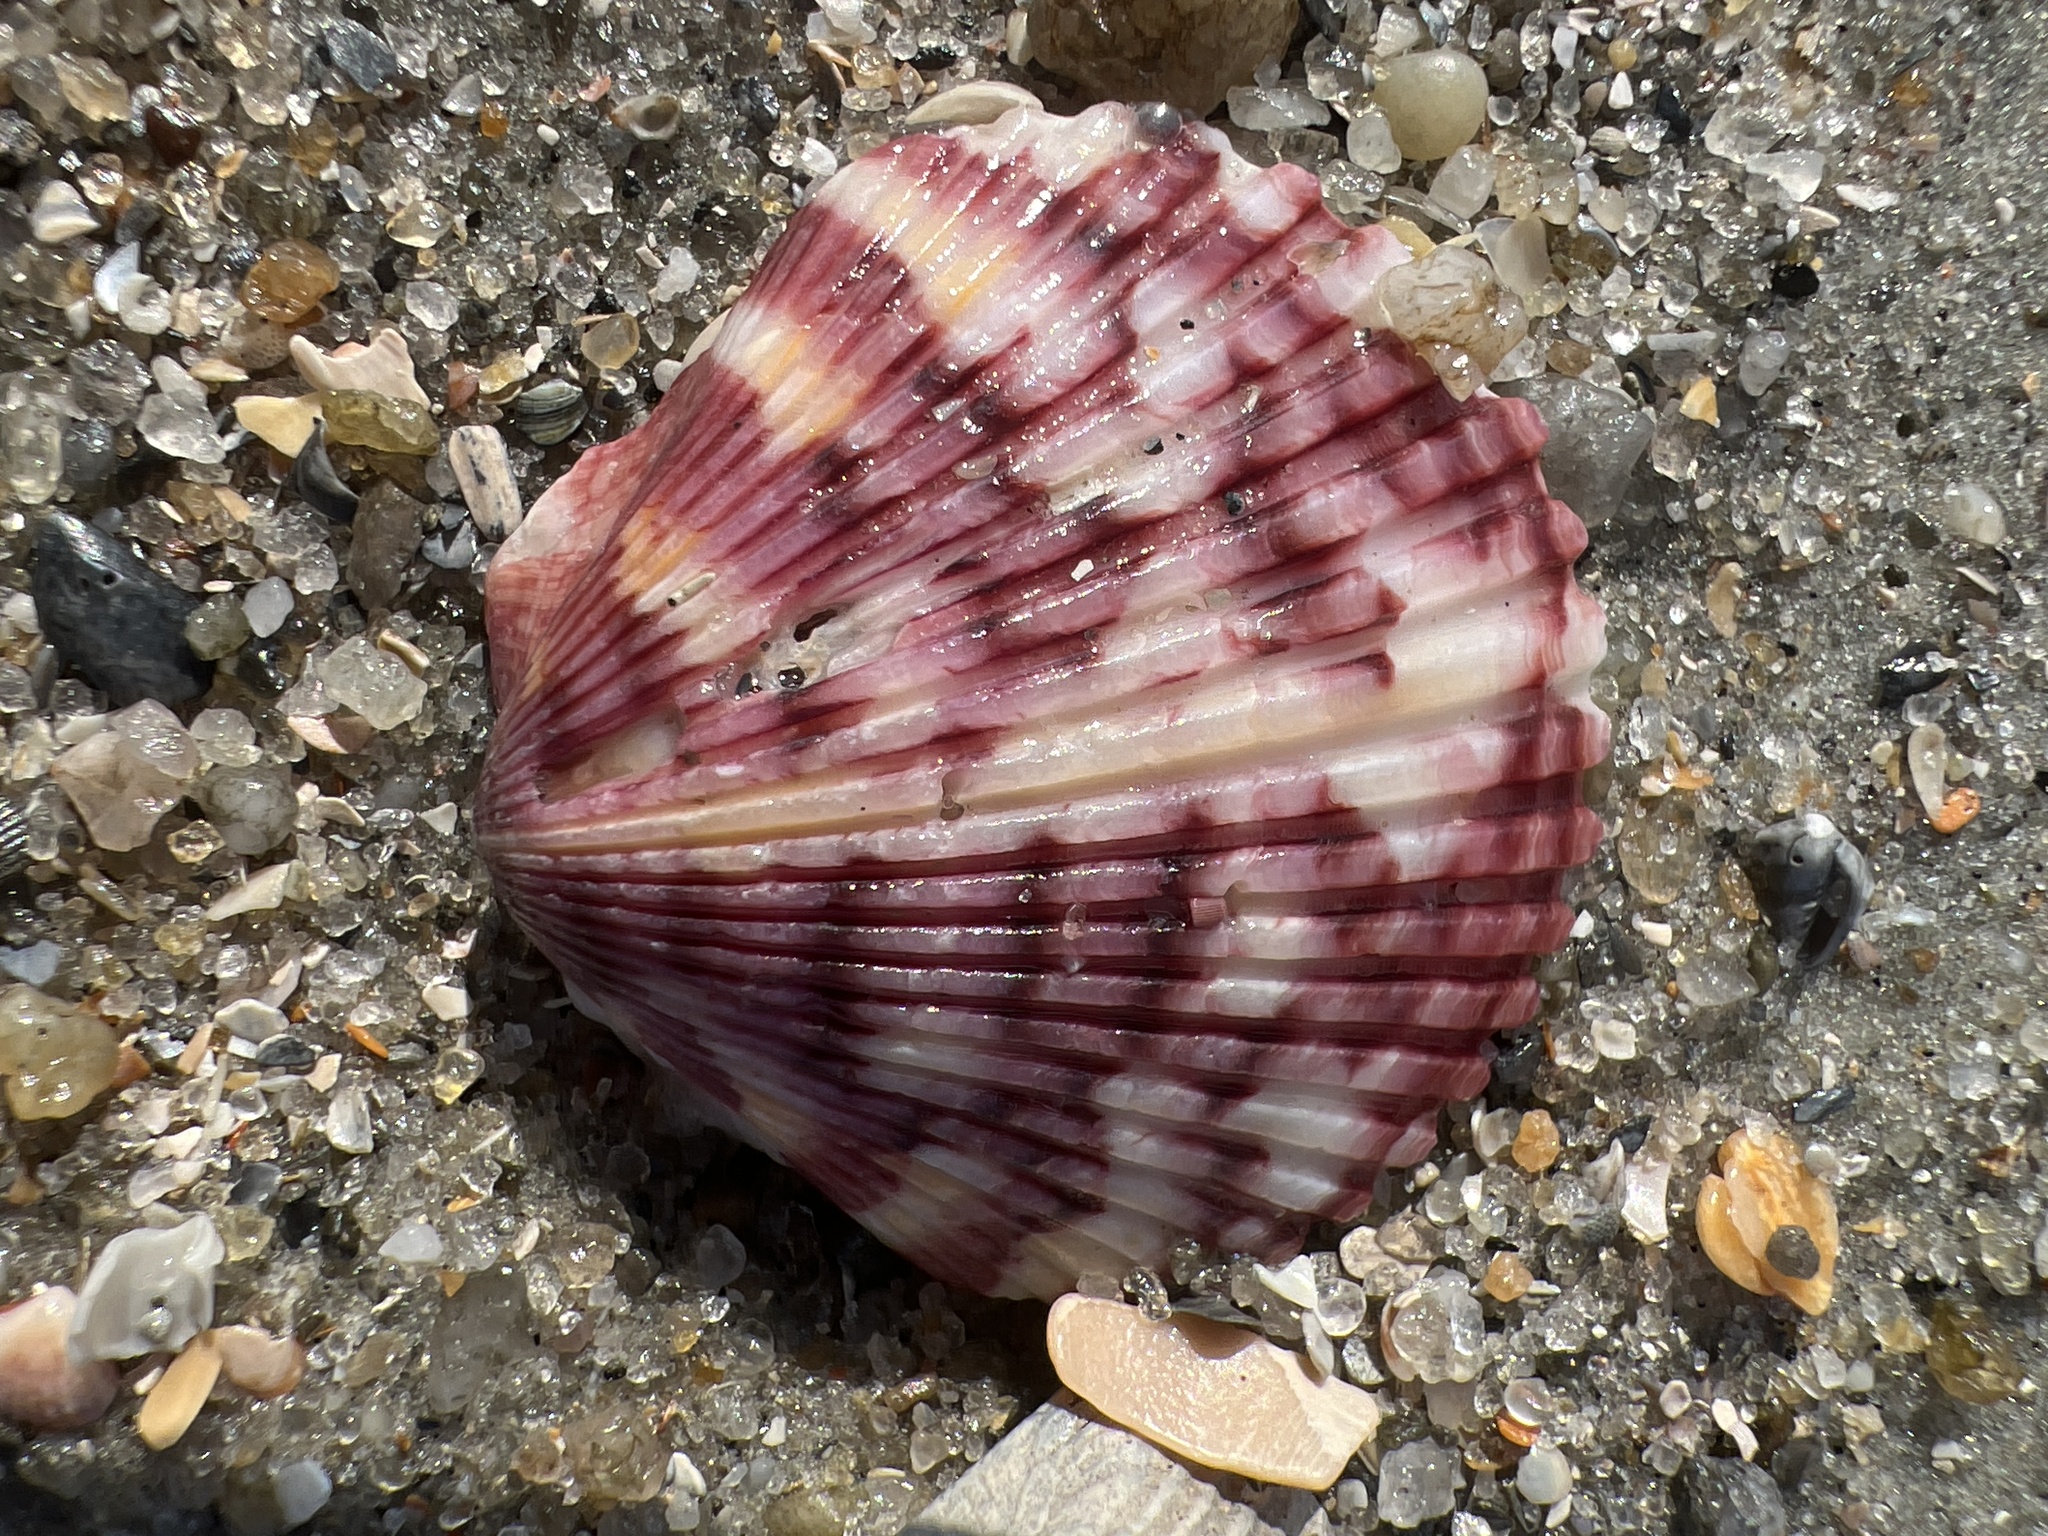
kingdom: Animalia
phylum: Mollusca
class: Bivalvia
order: Pectinida
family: Pectinidae
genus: Argopecten
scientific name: Argopecten gibbus
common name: Atlantic calico scallop
